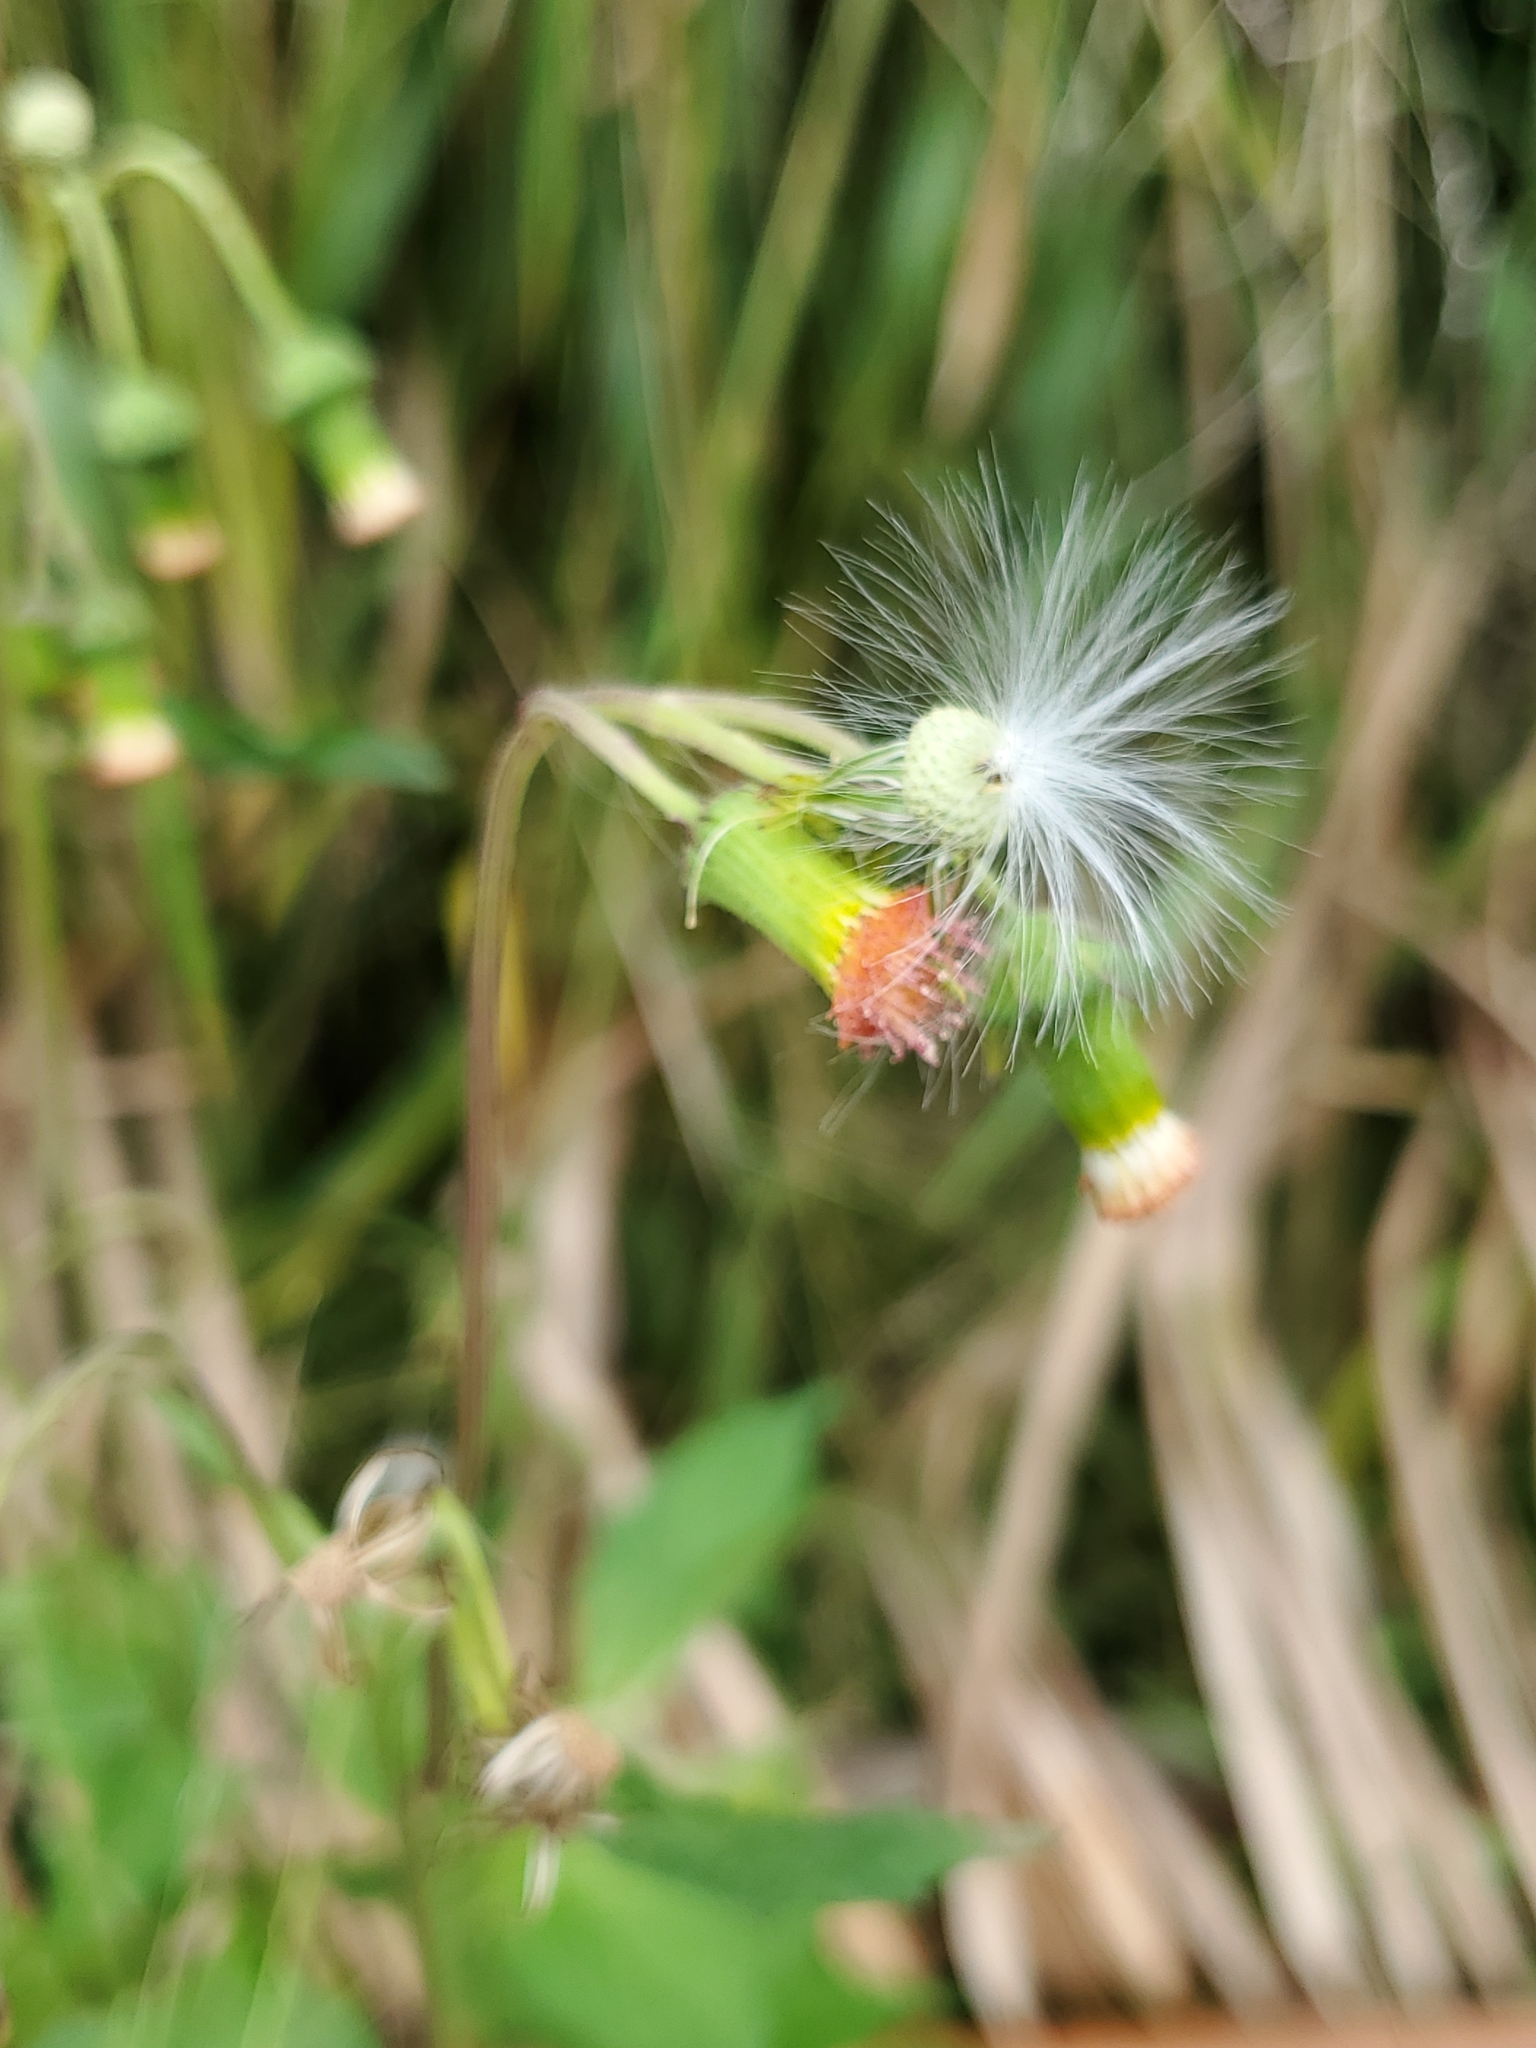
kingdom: Plantae
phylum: Tracheophyta
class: Magnoliopsida
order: Asterales
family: Asteraceae
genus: Crassocephalum
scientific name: Crassocephalum crepidioides
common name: Redflower ragleaf
